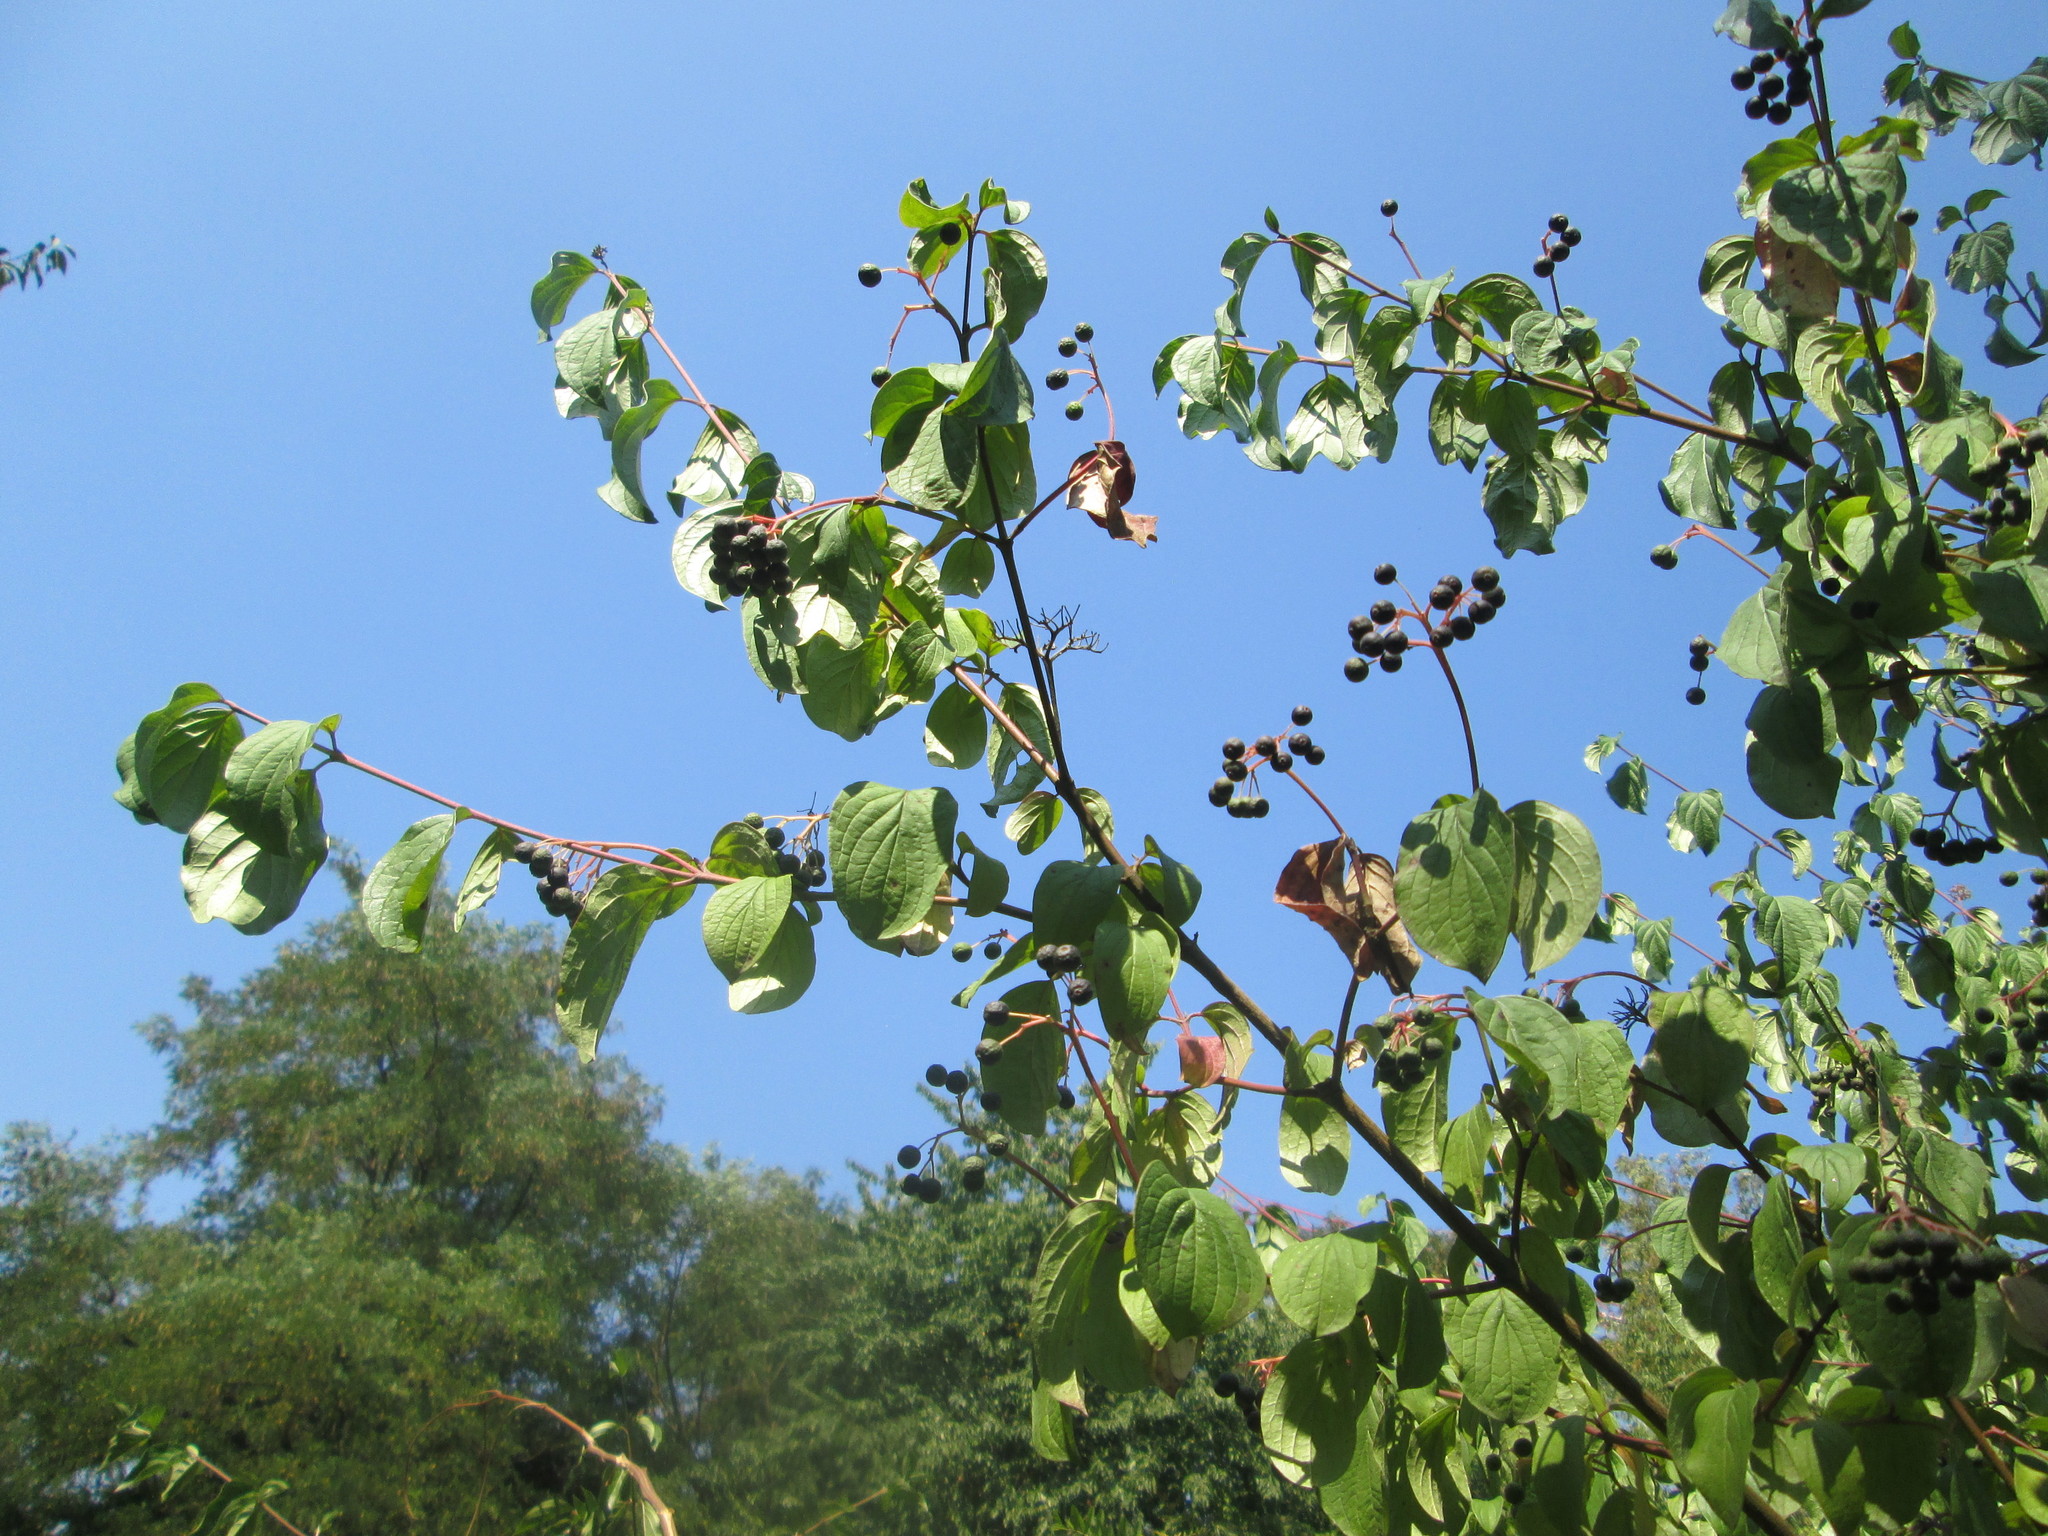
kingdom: Plantae
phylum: Tracheophyta
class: Magnoliopsida
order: Cornales
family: Cornaceae
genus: Cornus
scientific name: Cornus sanguinea
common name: Dogwood
